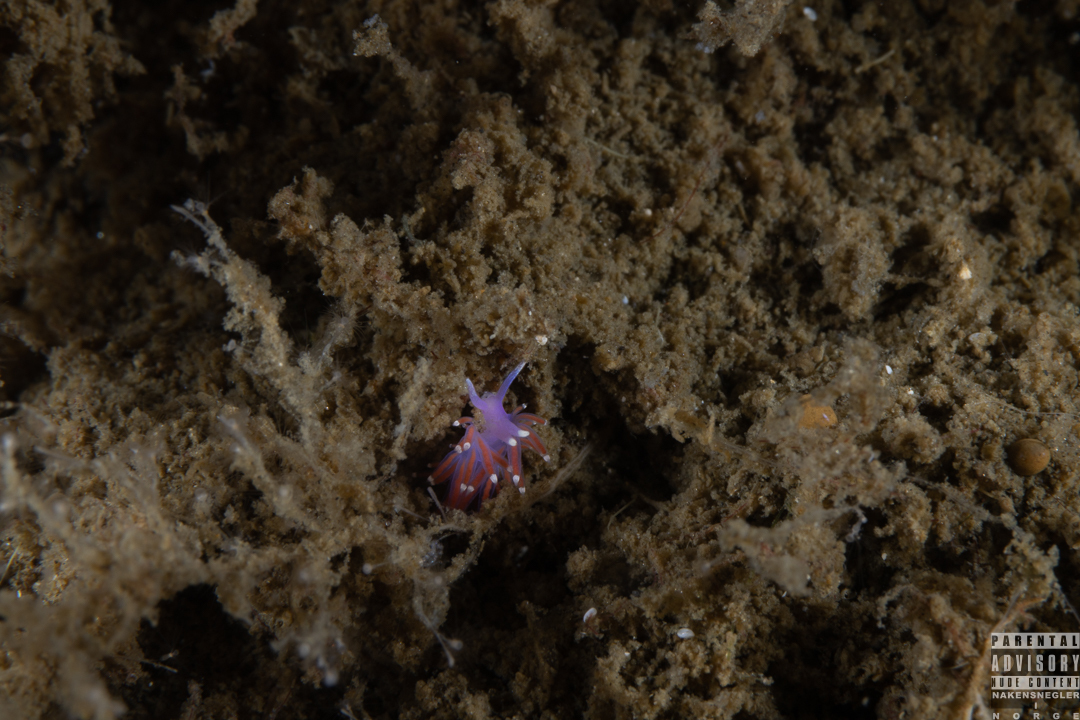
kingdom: Animalia
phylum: Mollusca
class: Gastropoda
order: Nudibranchia
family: Flabellinidae
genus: Edmundsella
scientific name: Edmundsella pedata
